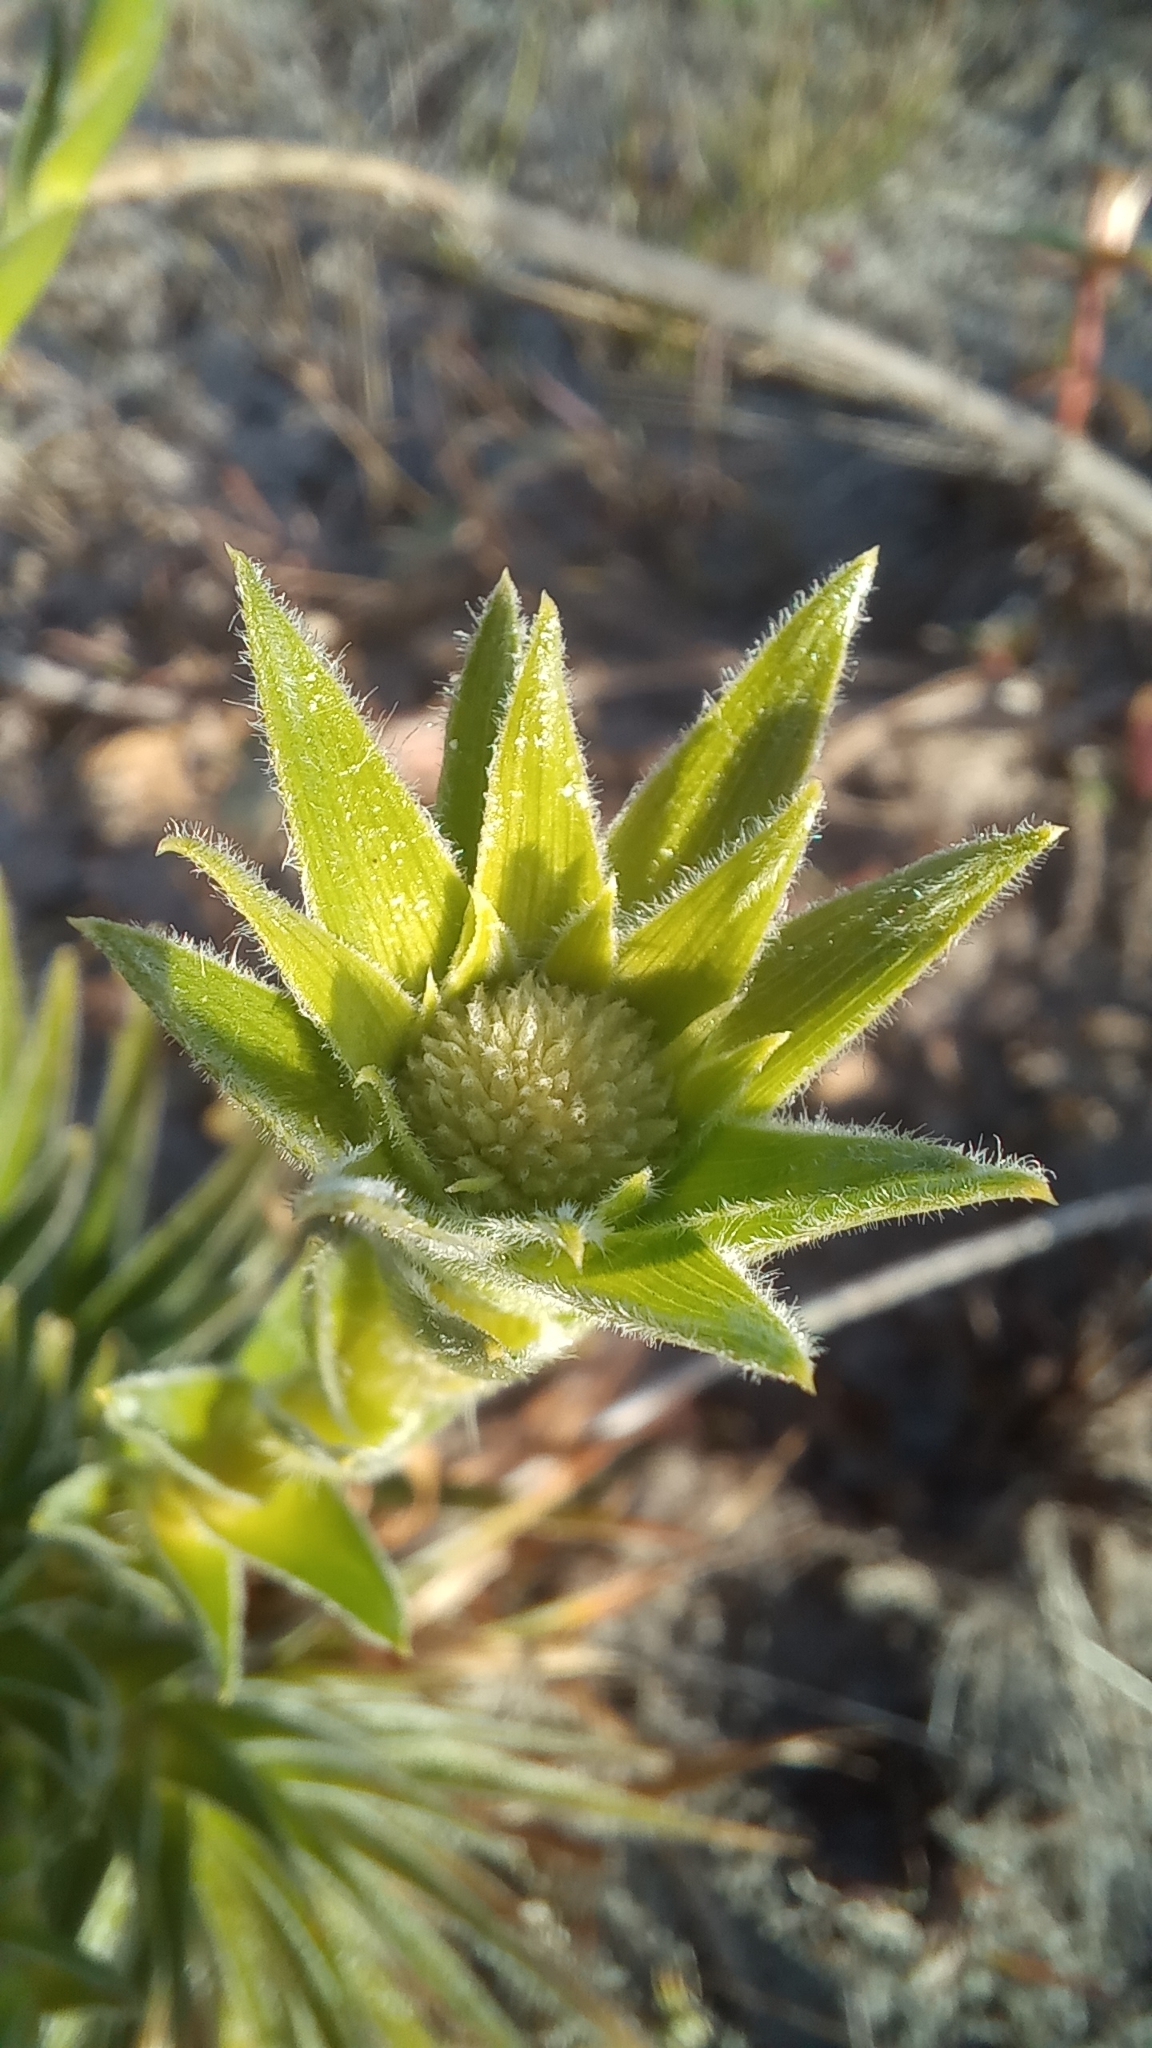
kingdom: Plantae
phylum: Tracheophyta
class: Liliopsida
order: Poales
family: Eriocaulaceae
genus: Paepalanthus
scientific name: Paepalanthus polyanthus
